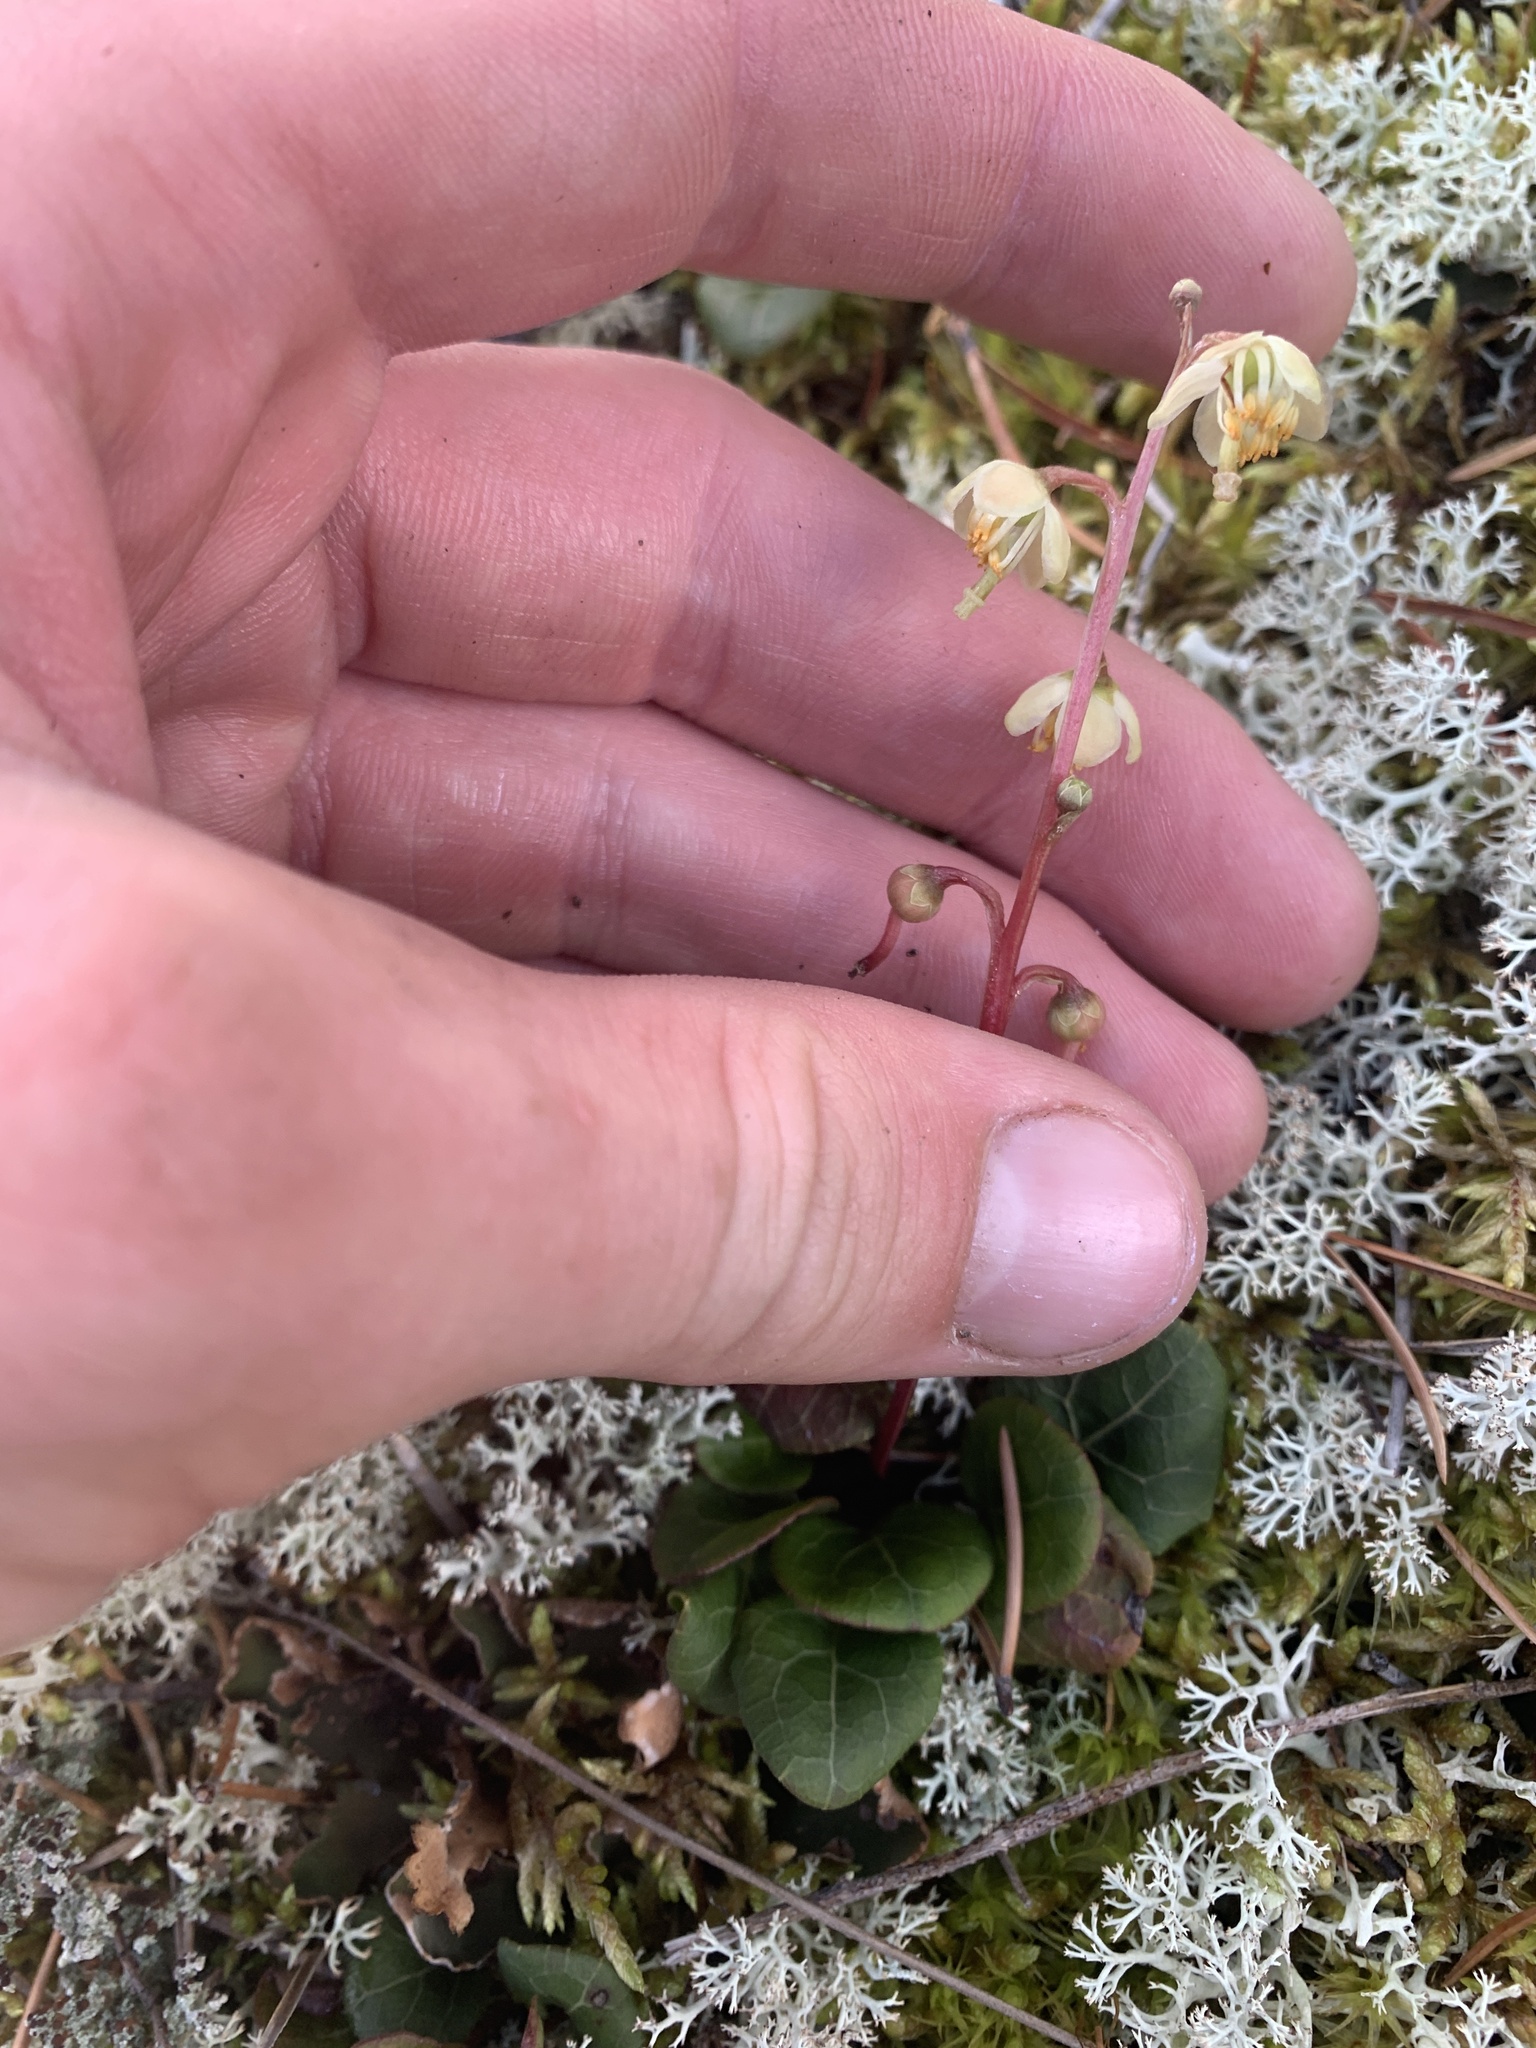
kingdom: Plantae
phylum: Tracheophyta
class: Magnoliopsida
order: Ericales
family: Ericaceae
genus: Pyrola
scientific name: Pyrola chlorantha
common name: Green wintergreen
